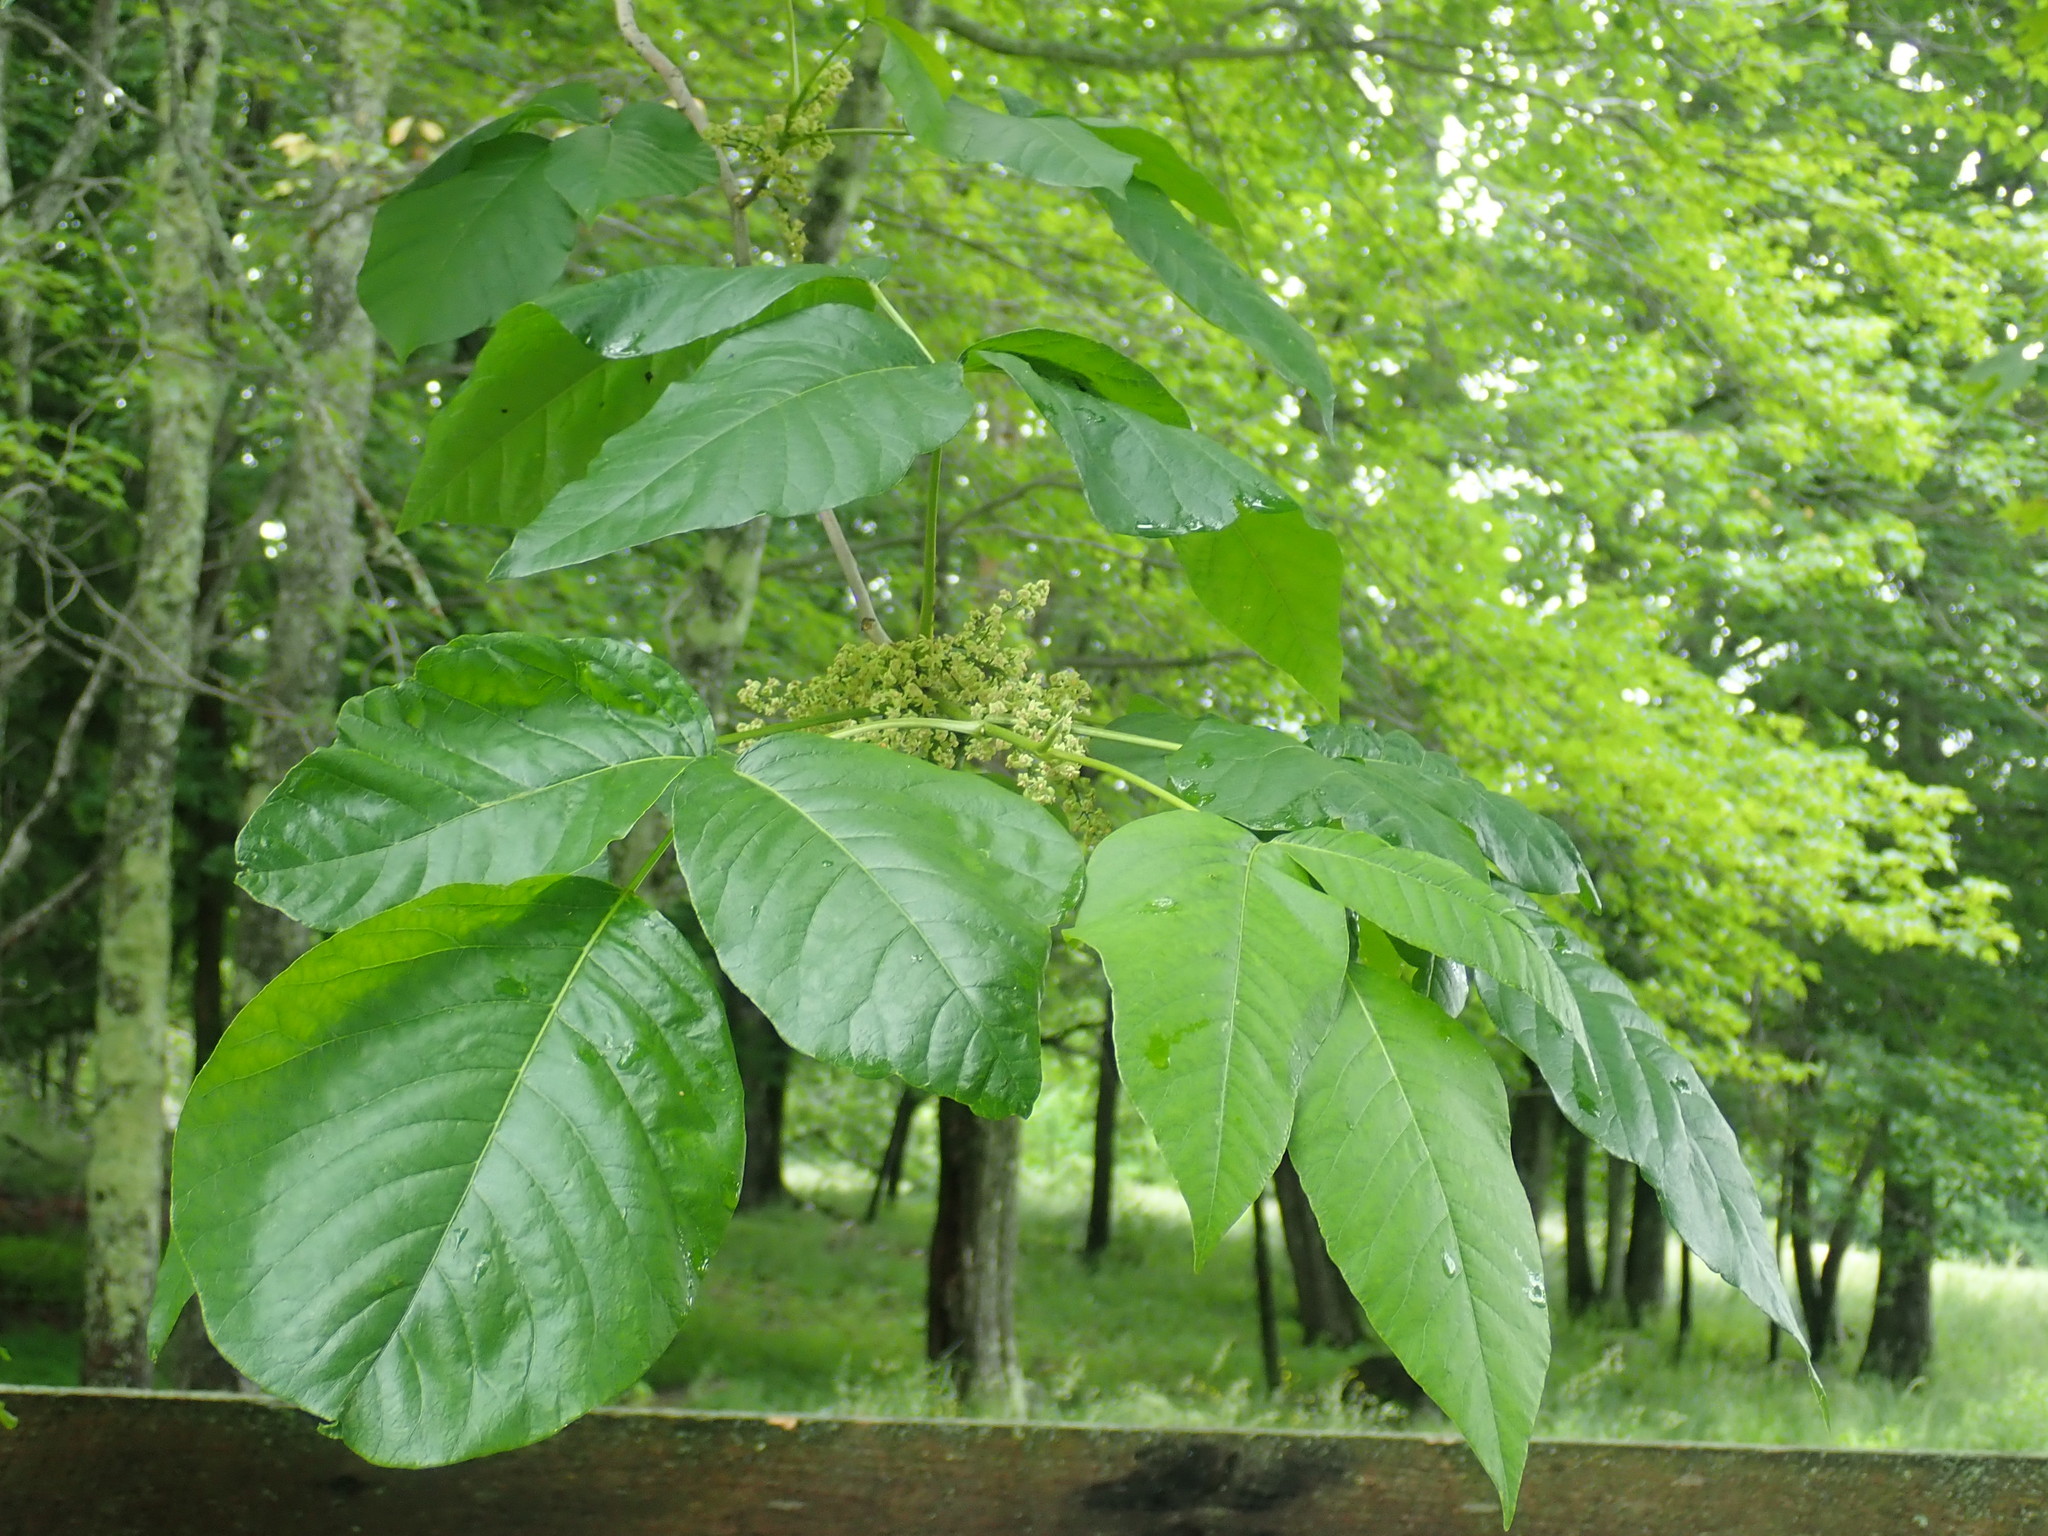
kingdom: Plantae
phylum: Tracheophyta
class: Magnoliopsida
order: Sapindales
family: Anacardiaceae
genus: Toxicodendron
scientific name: Toxicodendron radicans
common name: Poison ivy
